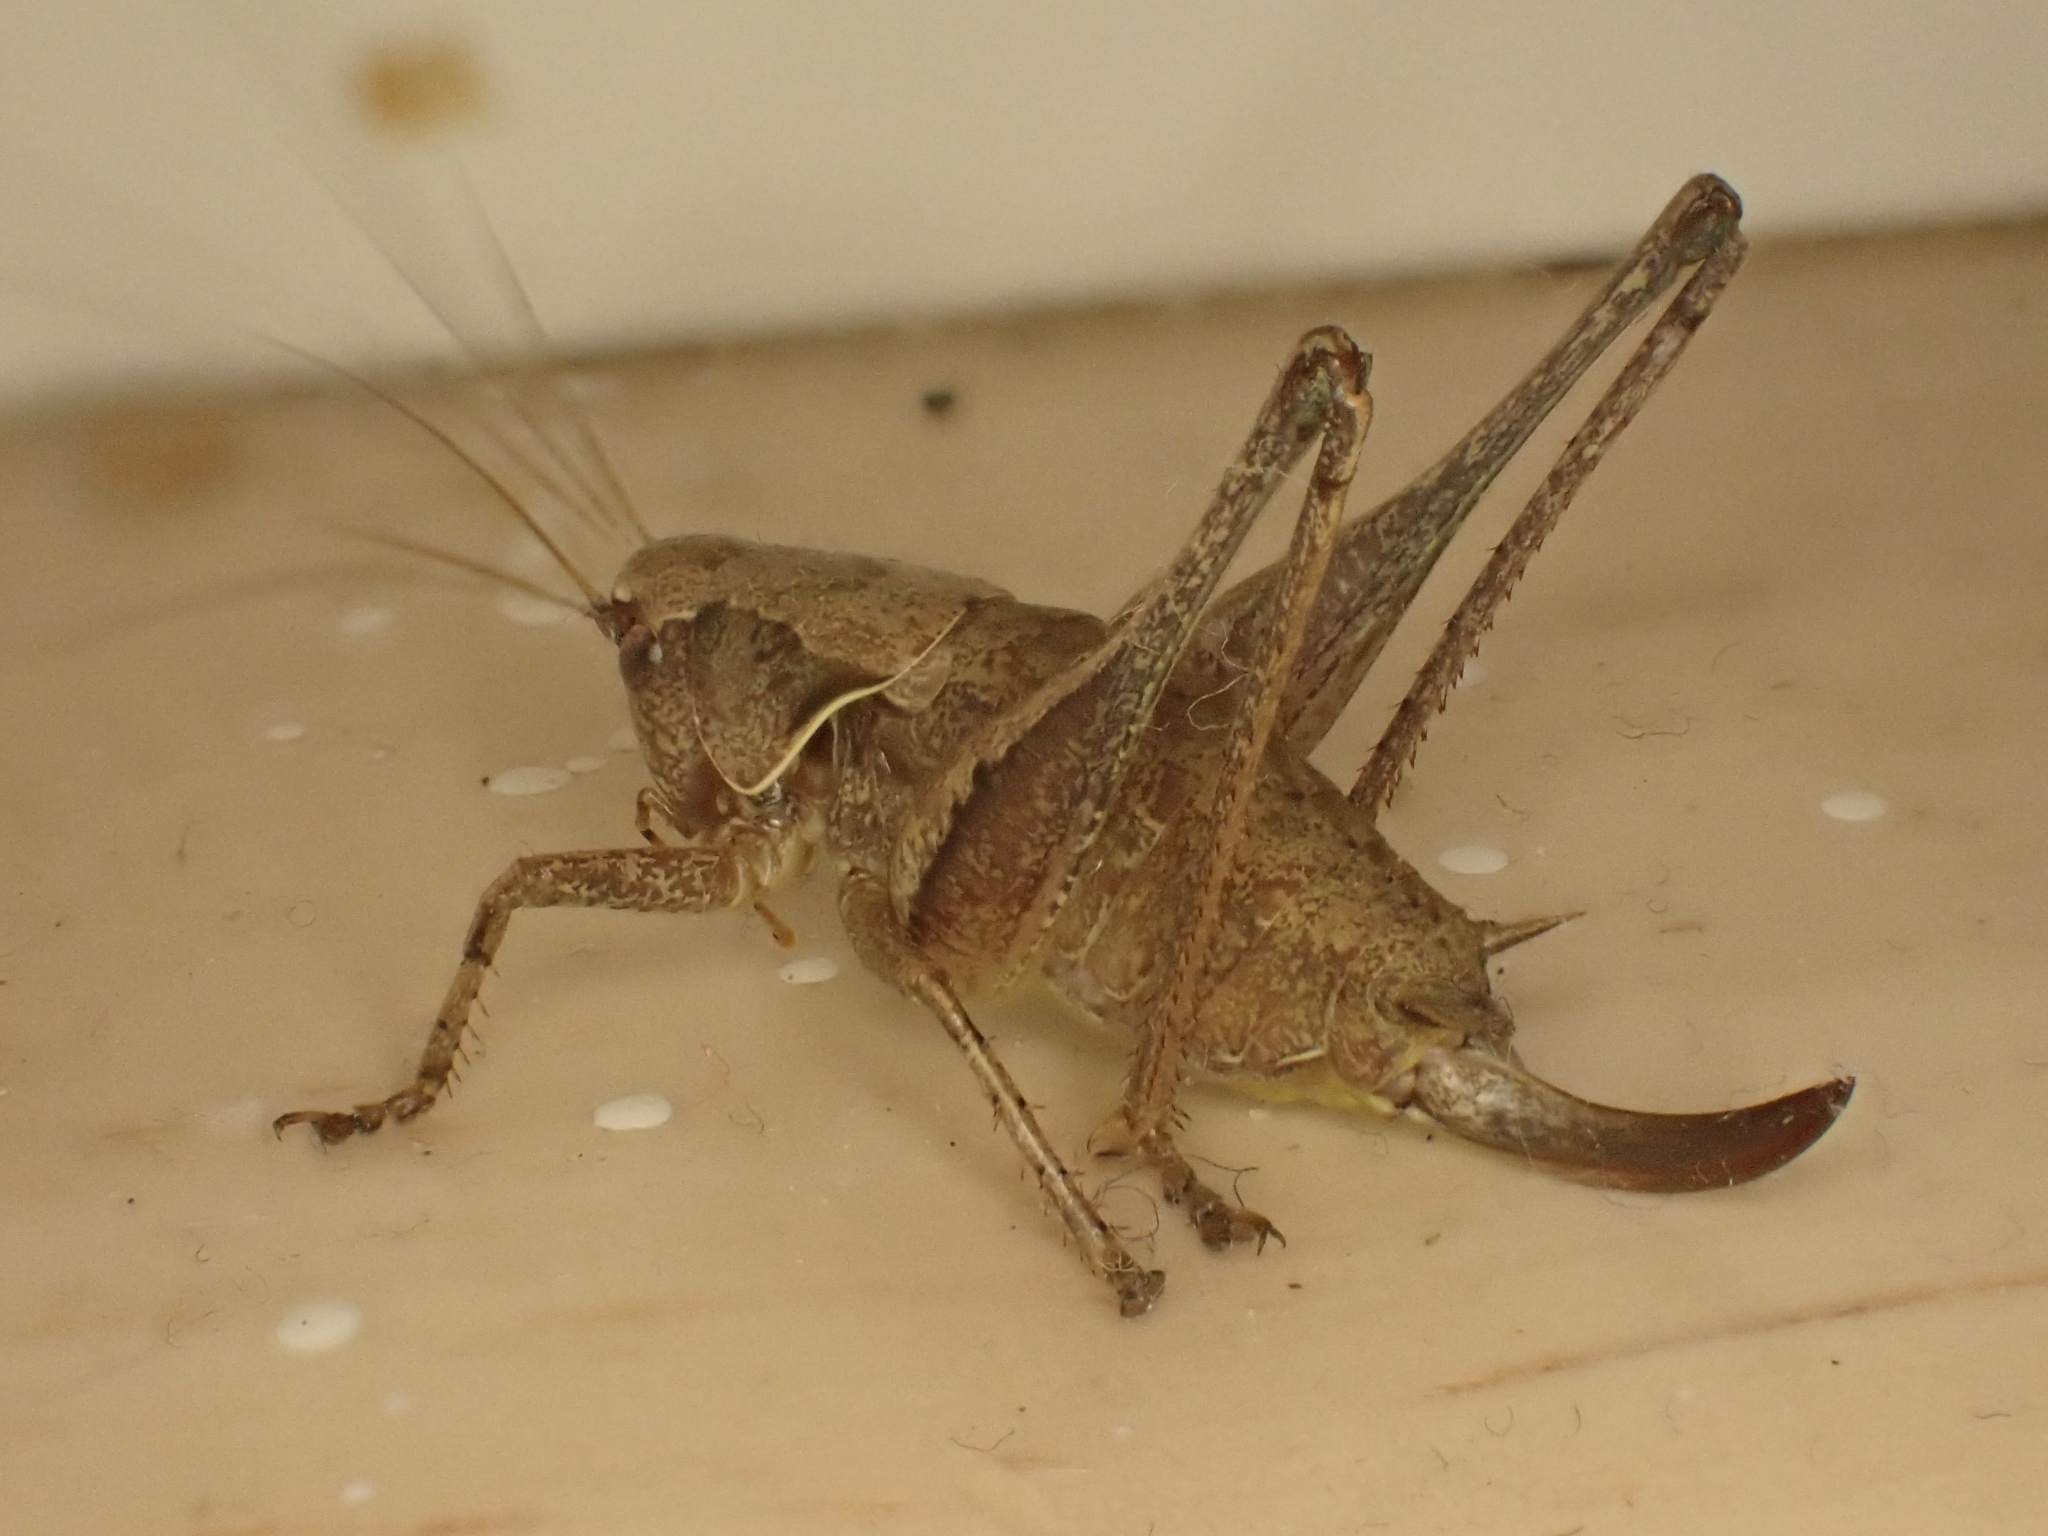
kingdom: Animalia
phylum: Arthropoda
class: Insecta
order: Orthoptera
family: Tettigoniidae
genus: Pholidoptera
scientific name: Pholidoptera griseoaptera
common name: Dark bush-cricket
